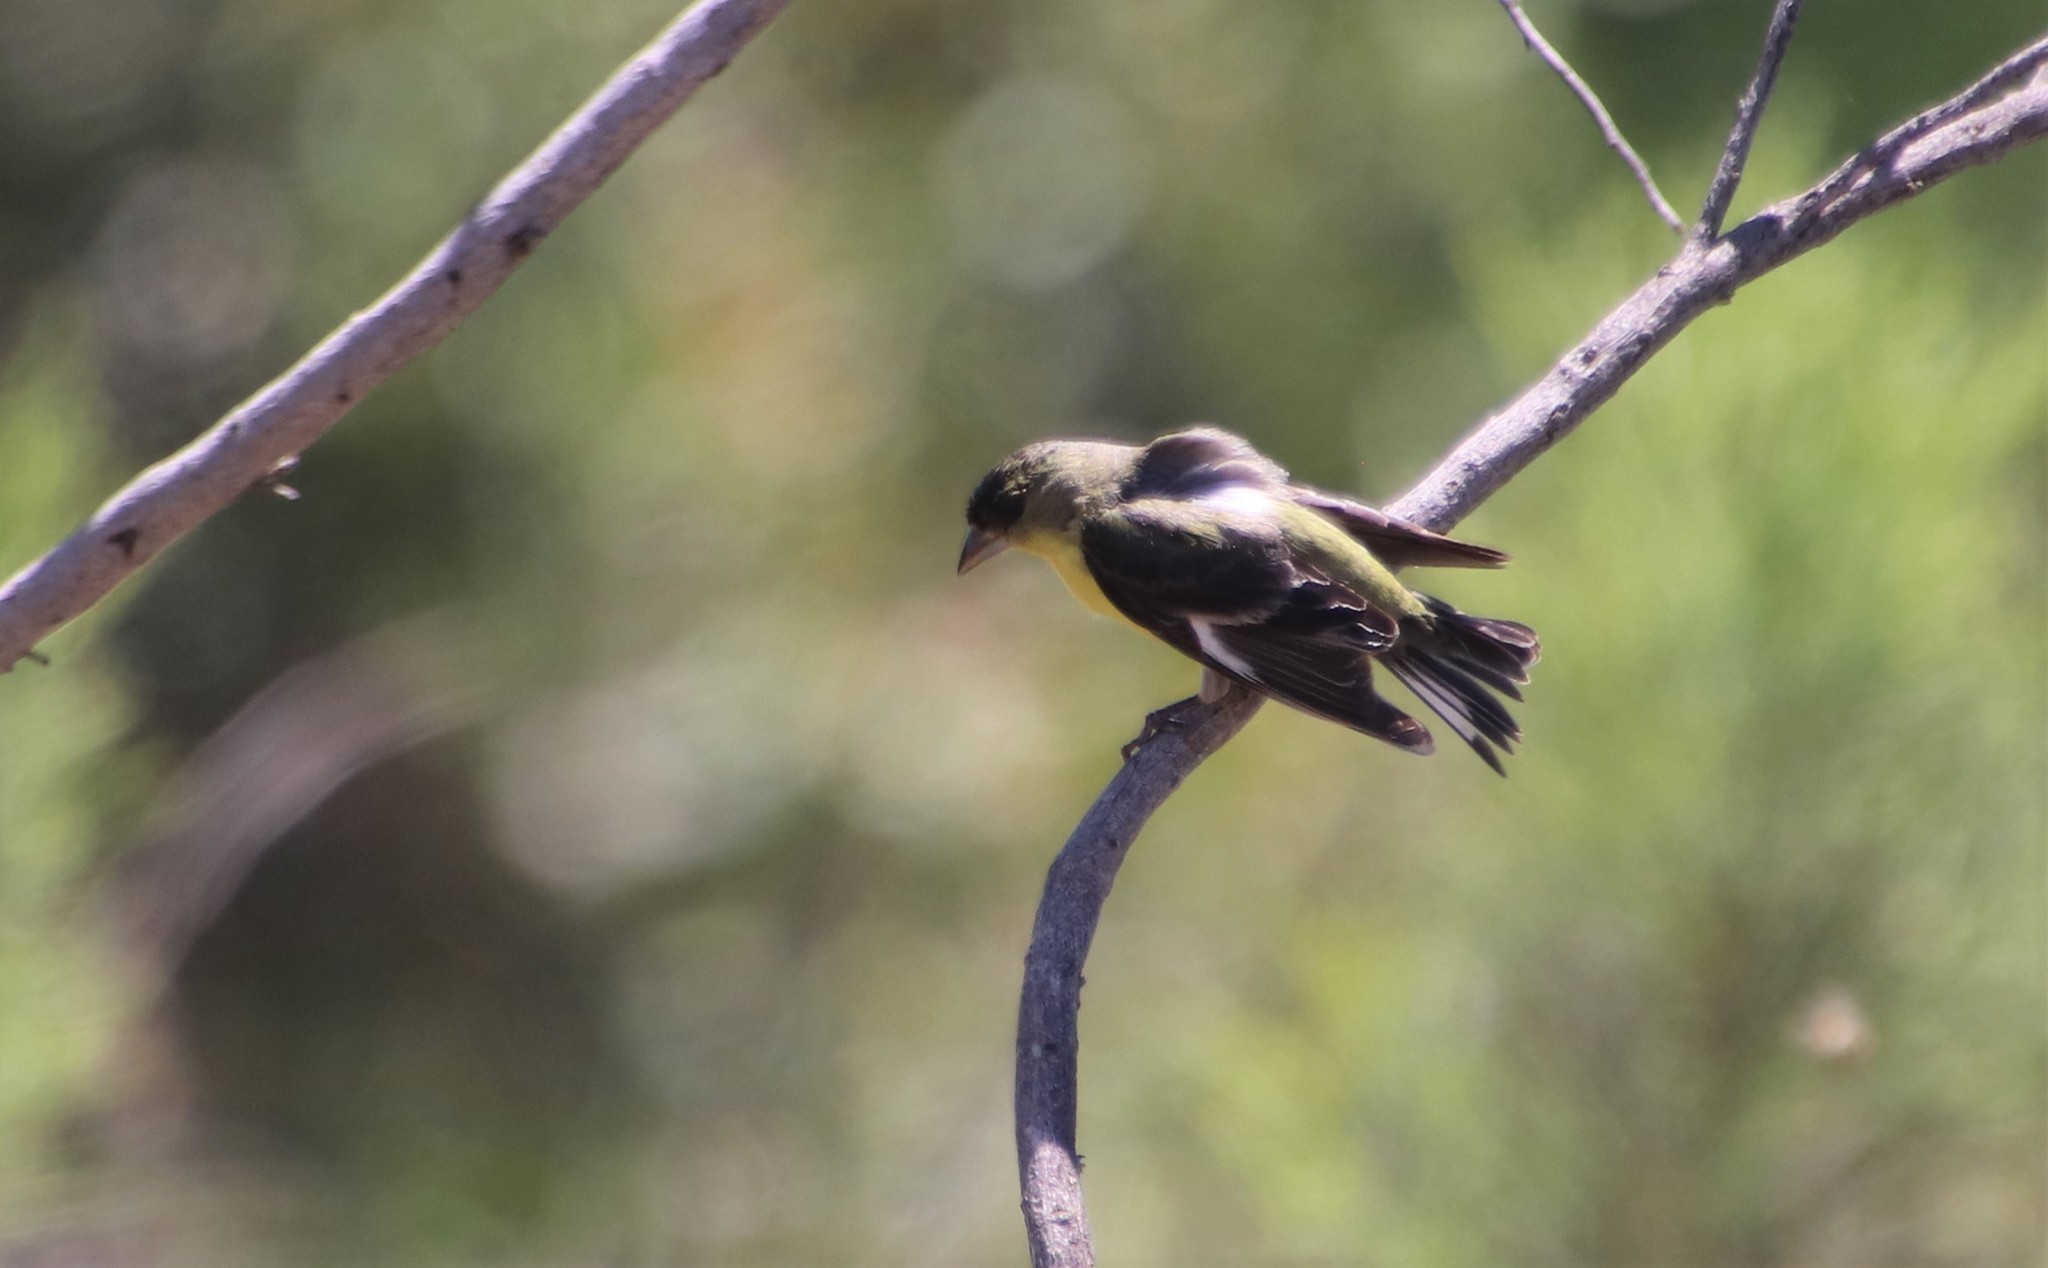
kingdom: Animalia
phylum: Chordata
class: Aves
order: Passeriformes
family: Fringillidae
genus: Spinus
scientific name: Spinus psaltria
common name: Lesser goldfinch
